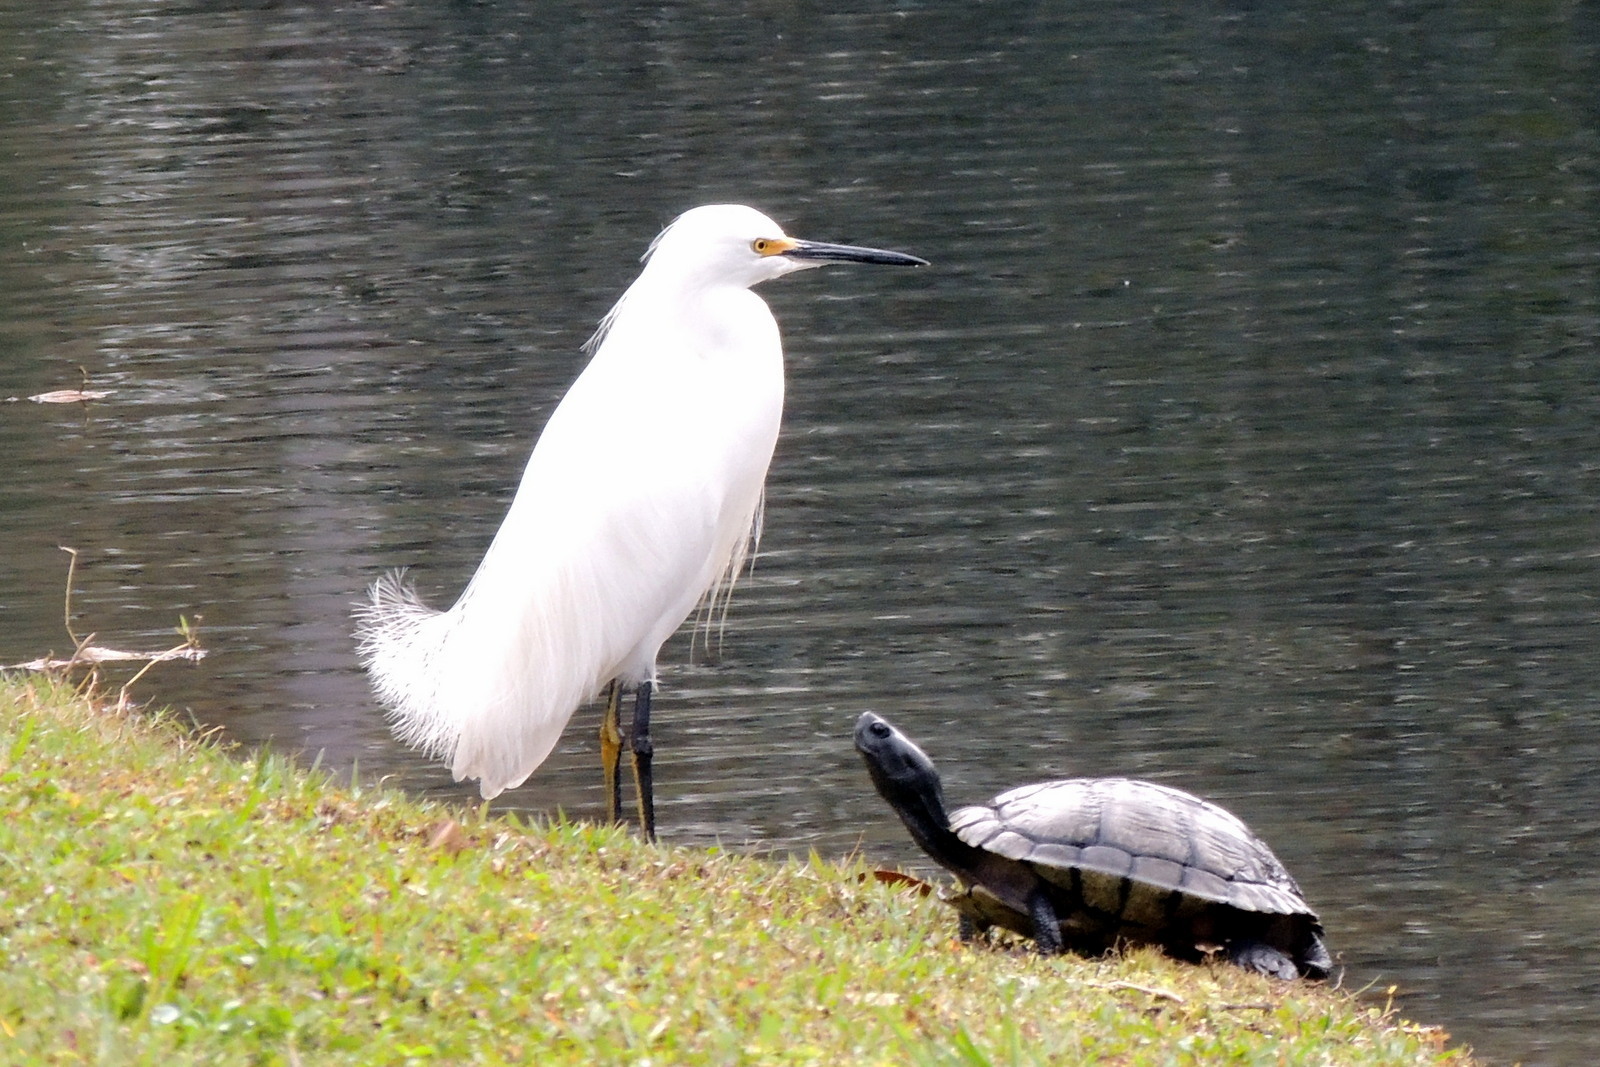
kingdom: Animalia
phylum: Chordata
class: Aves
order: Pelecaniformes
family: Ardeidae
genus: Egretta
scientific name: Egretta thula
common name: Snowy egret
